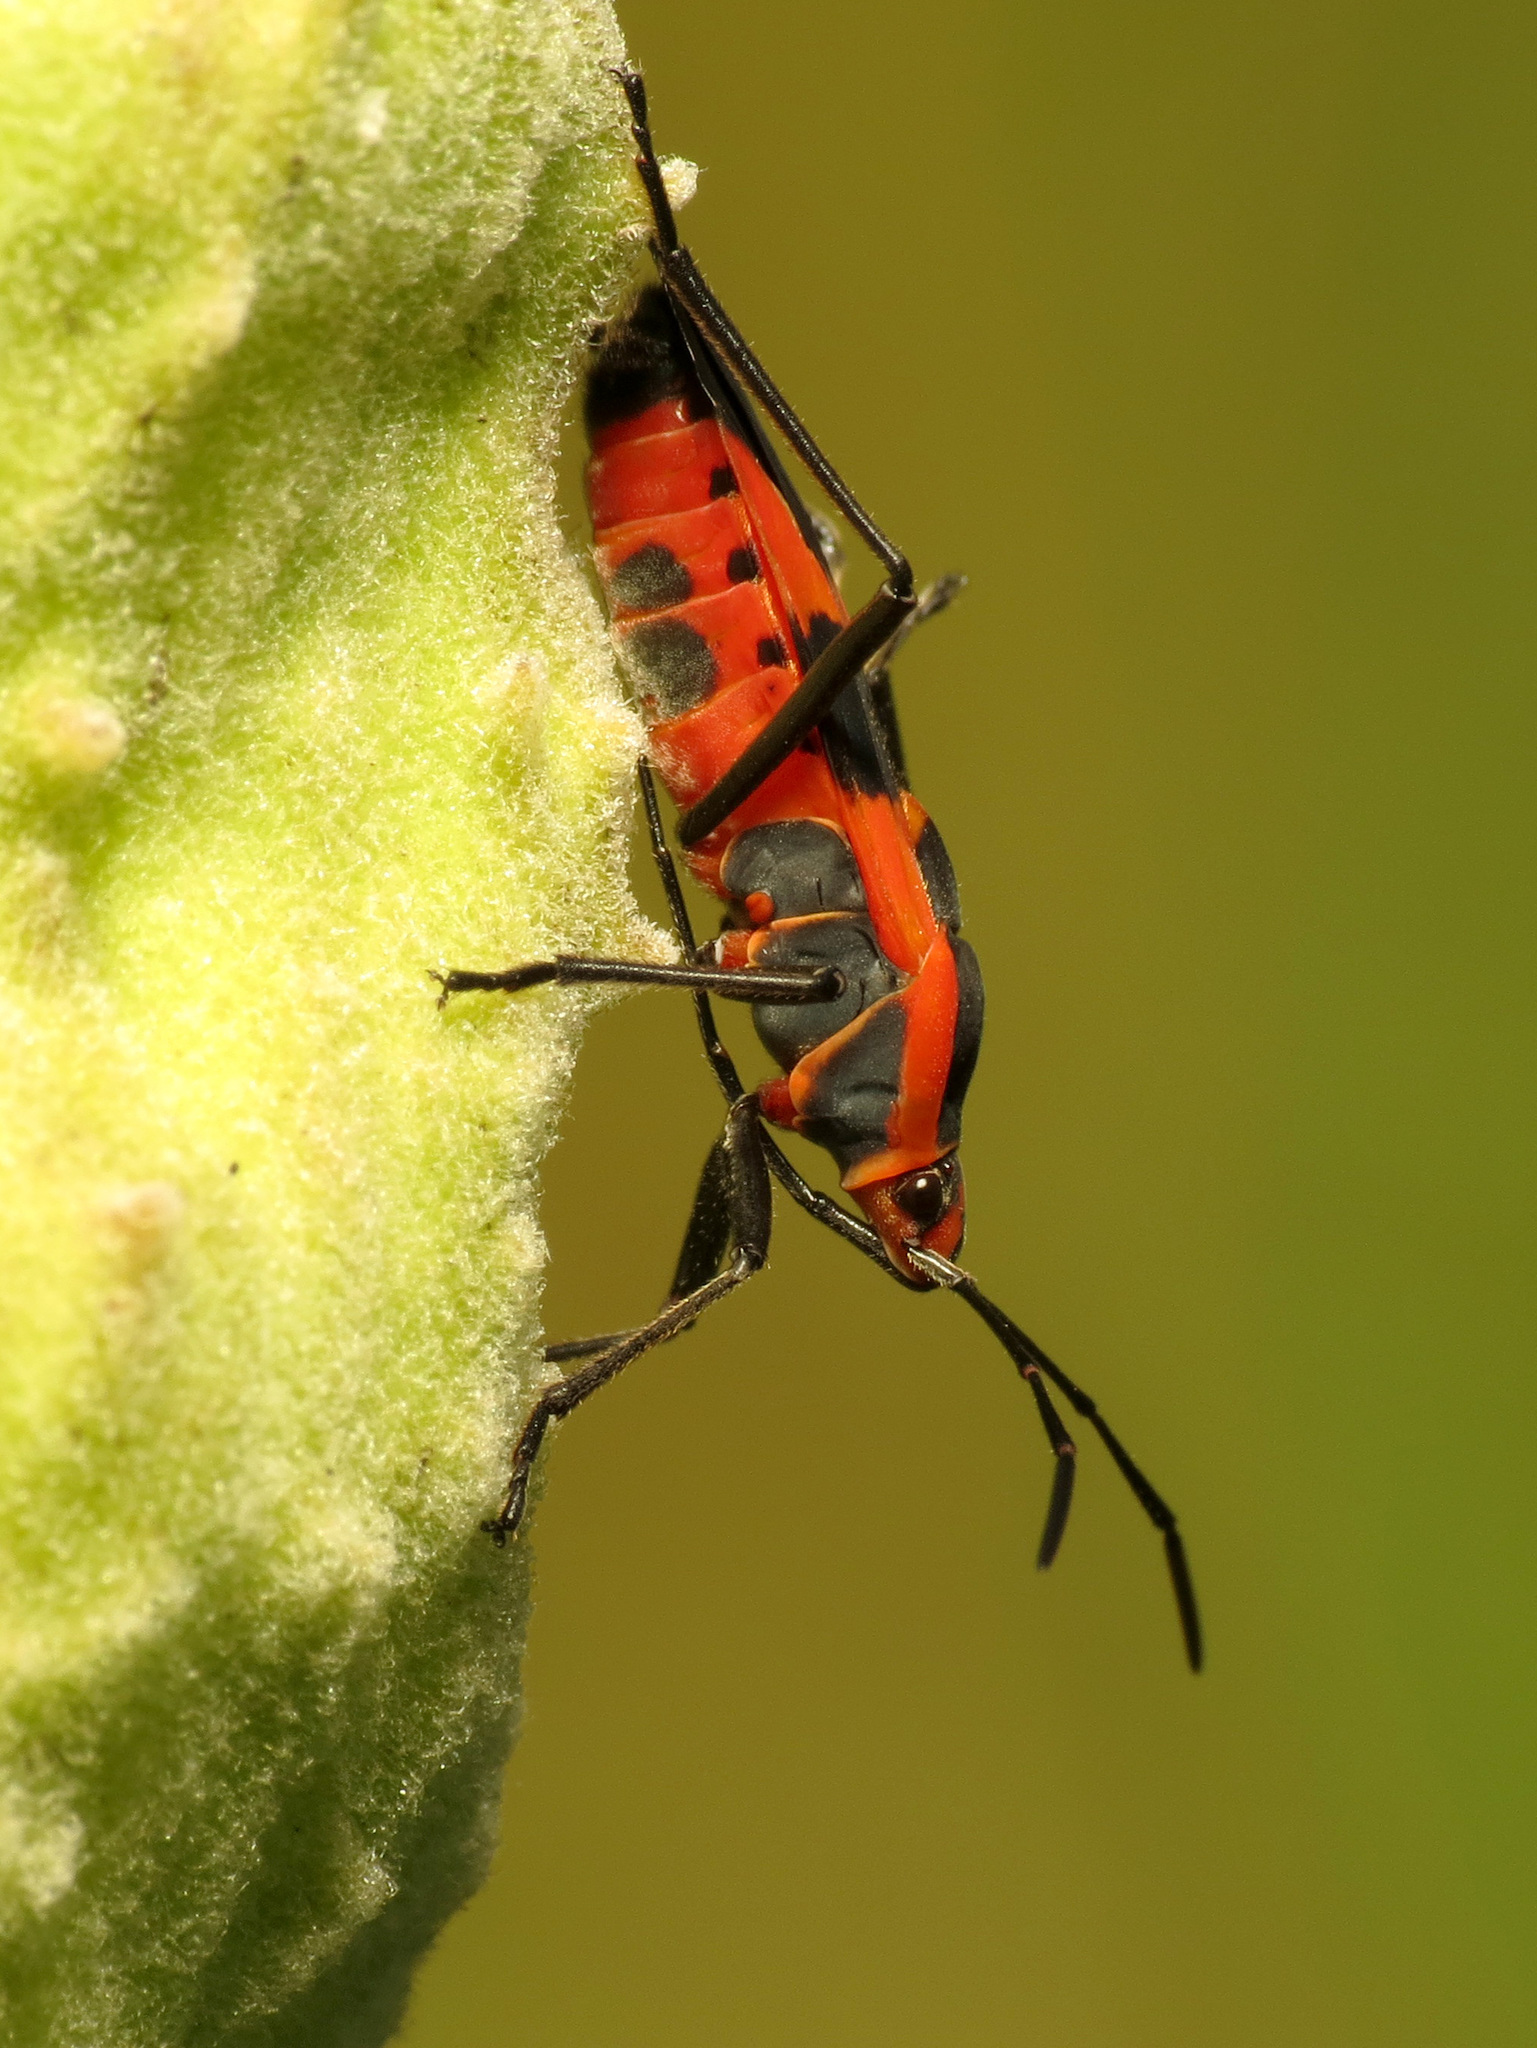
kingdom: Animalia
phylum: Arthropoda
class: Insecta
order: Hemiptera
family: Lygaeidae
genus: Oncopeltus
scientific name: Oncopeltus fasciatus
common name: Large milkweed bug
